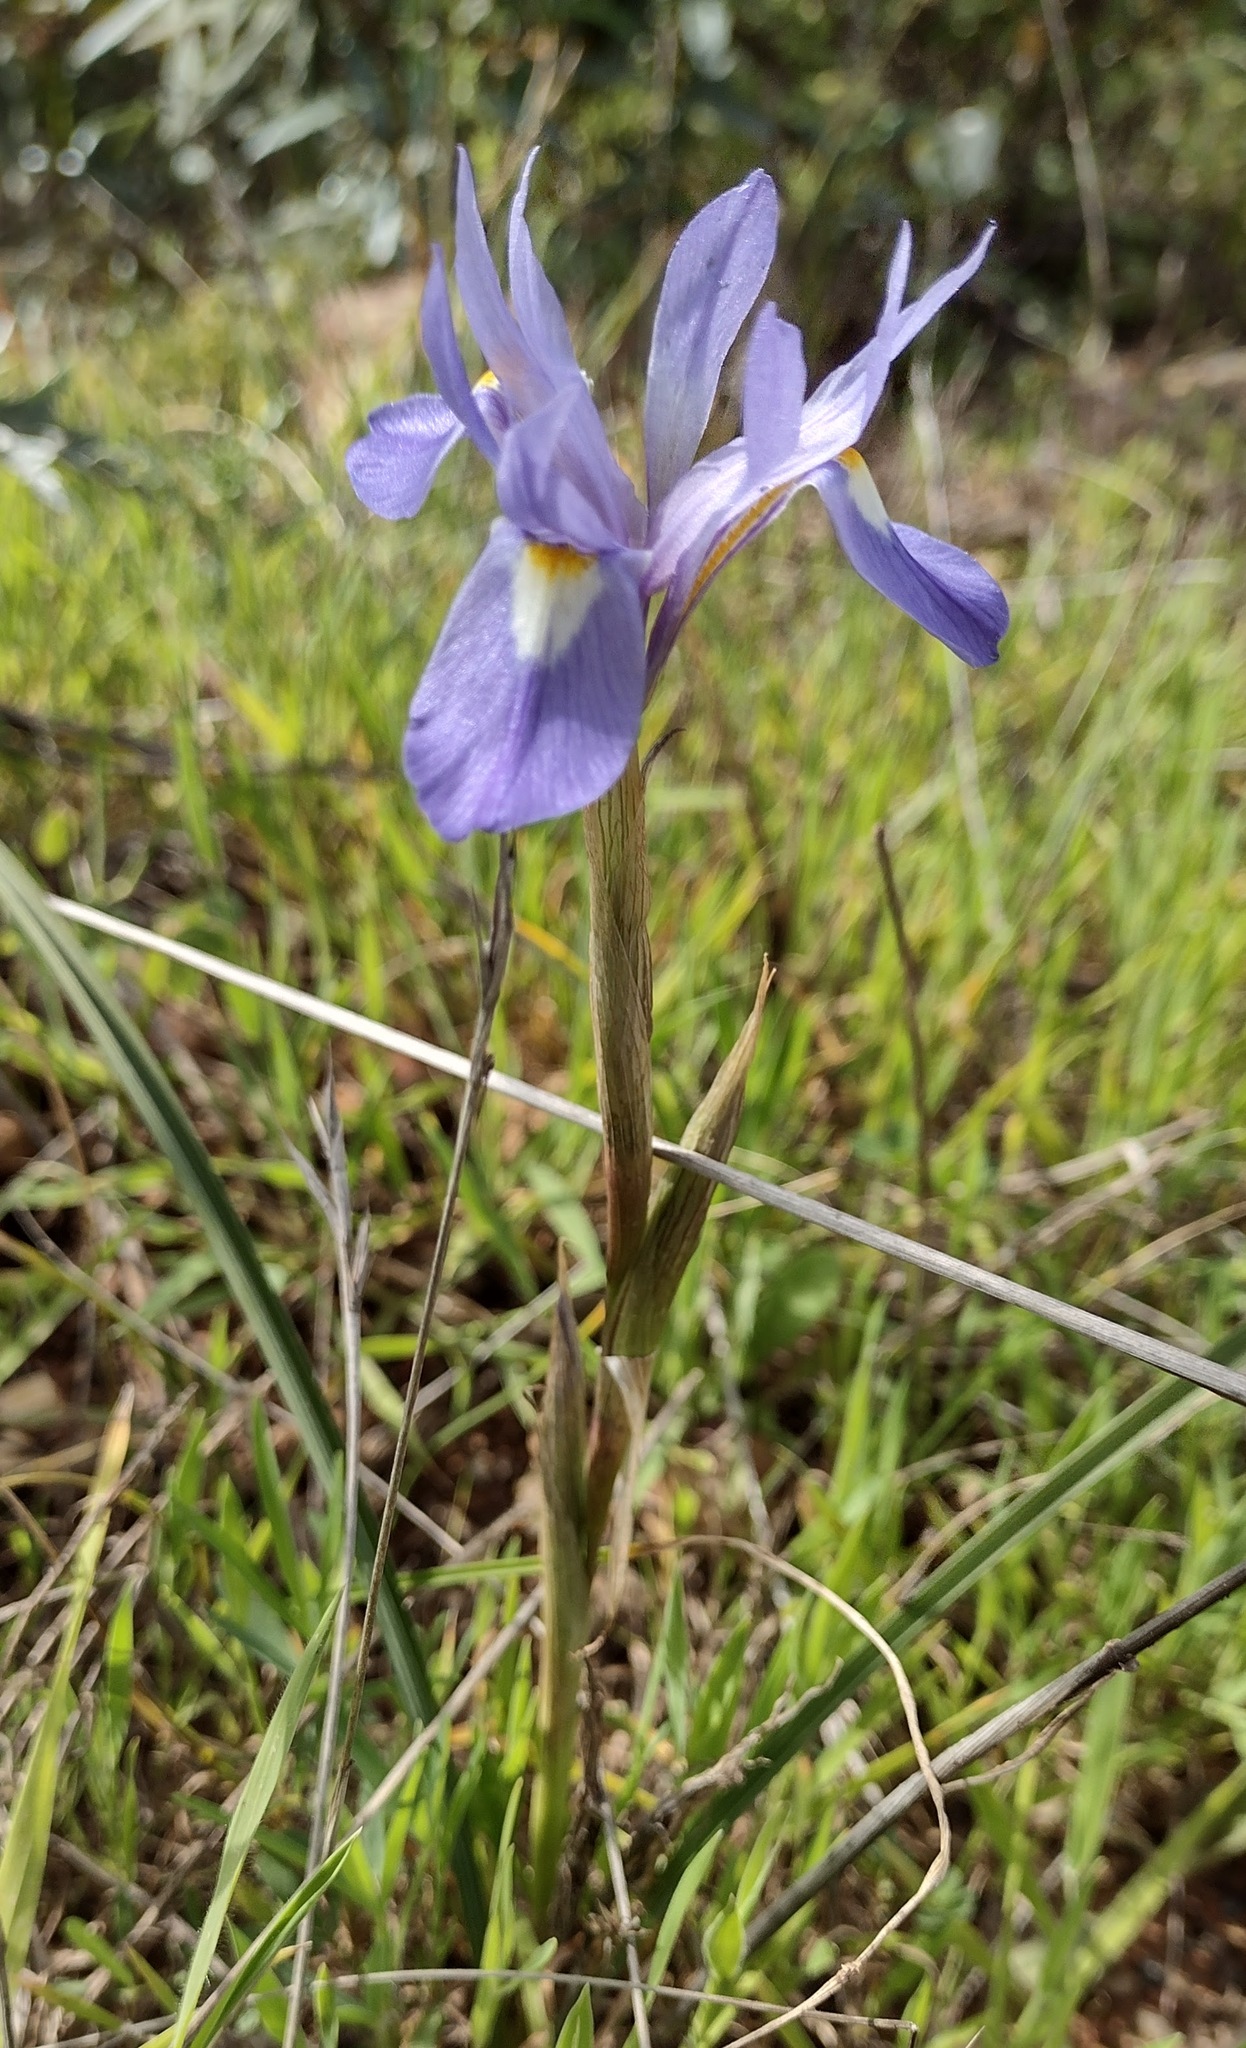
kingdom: Plantae
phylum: Tracheophyta
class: Liliopsida
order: Asparagales
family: Iridaceae
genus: Moraea
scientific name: Moraea sisyrinchium
